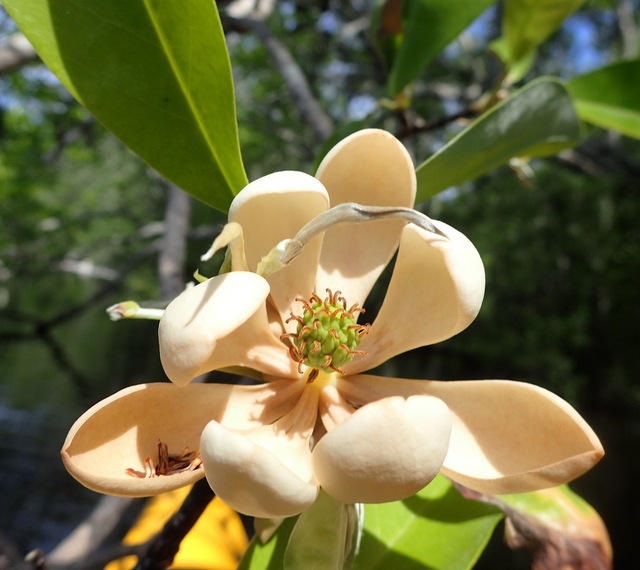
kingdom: Plantae
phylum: Tracheophyta
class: Magnoliopsida
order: Magnoliales
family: Magnoliaceae
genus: Magnolia
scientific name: Magnolia virginiana
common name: Swamp bay
